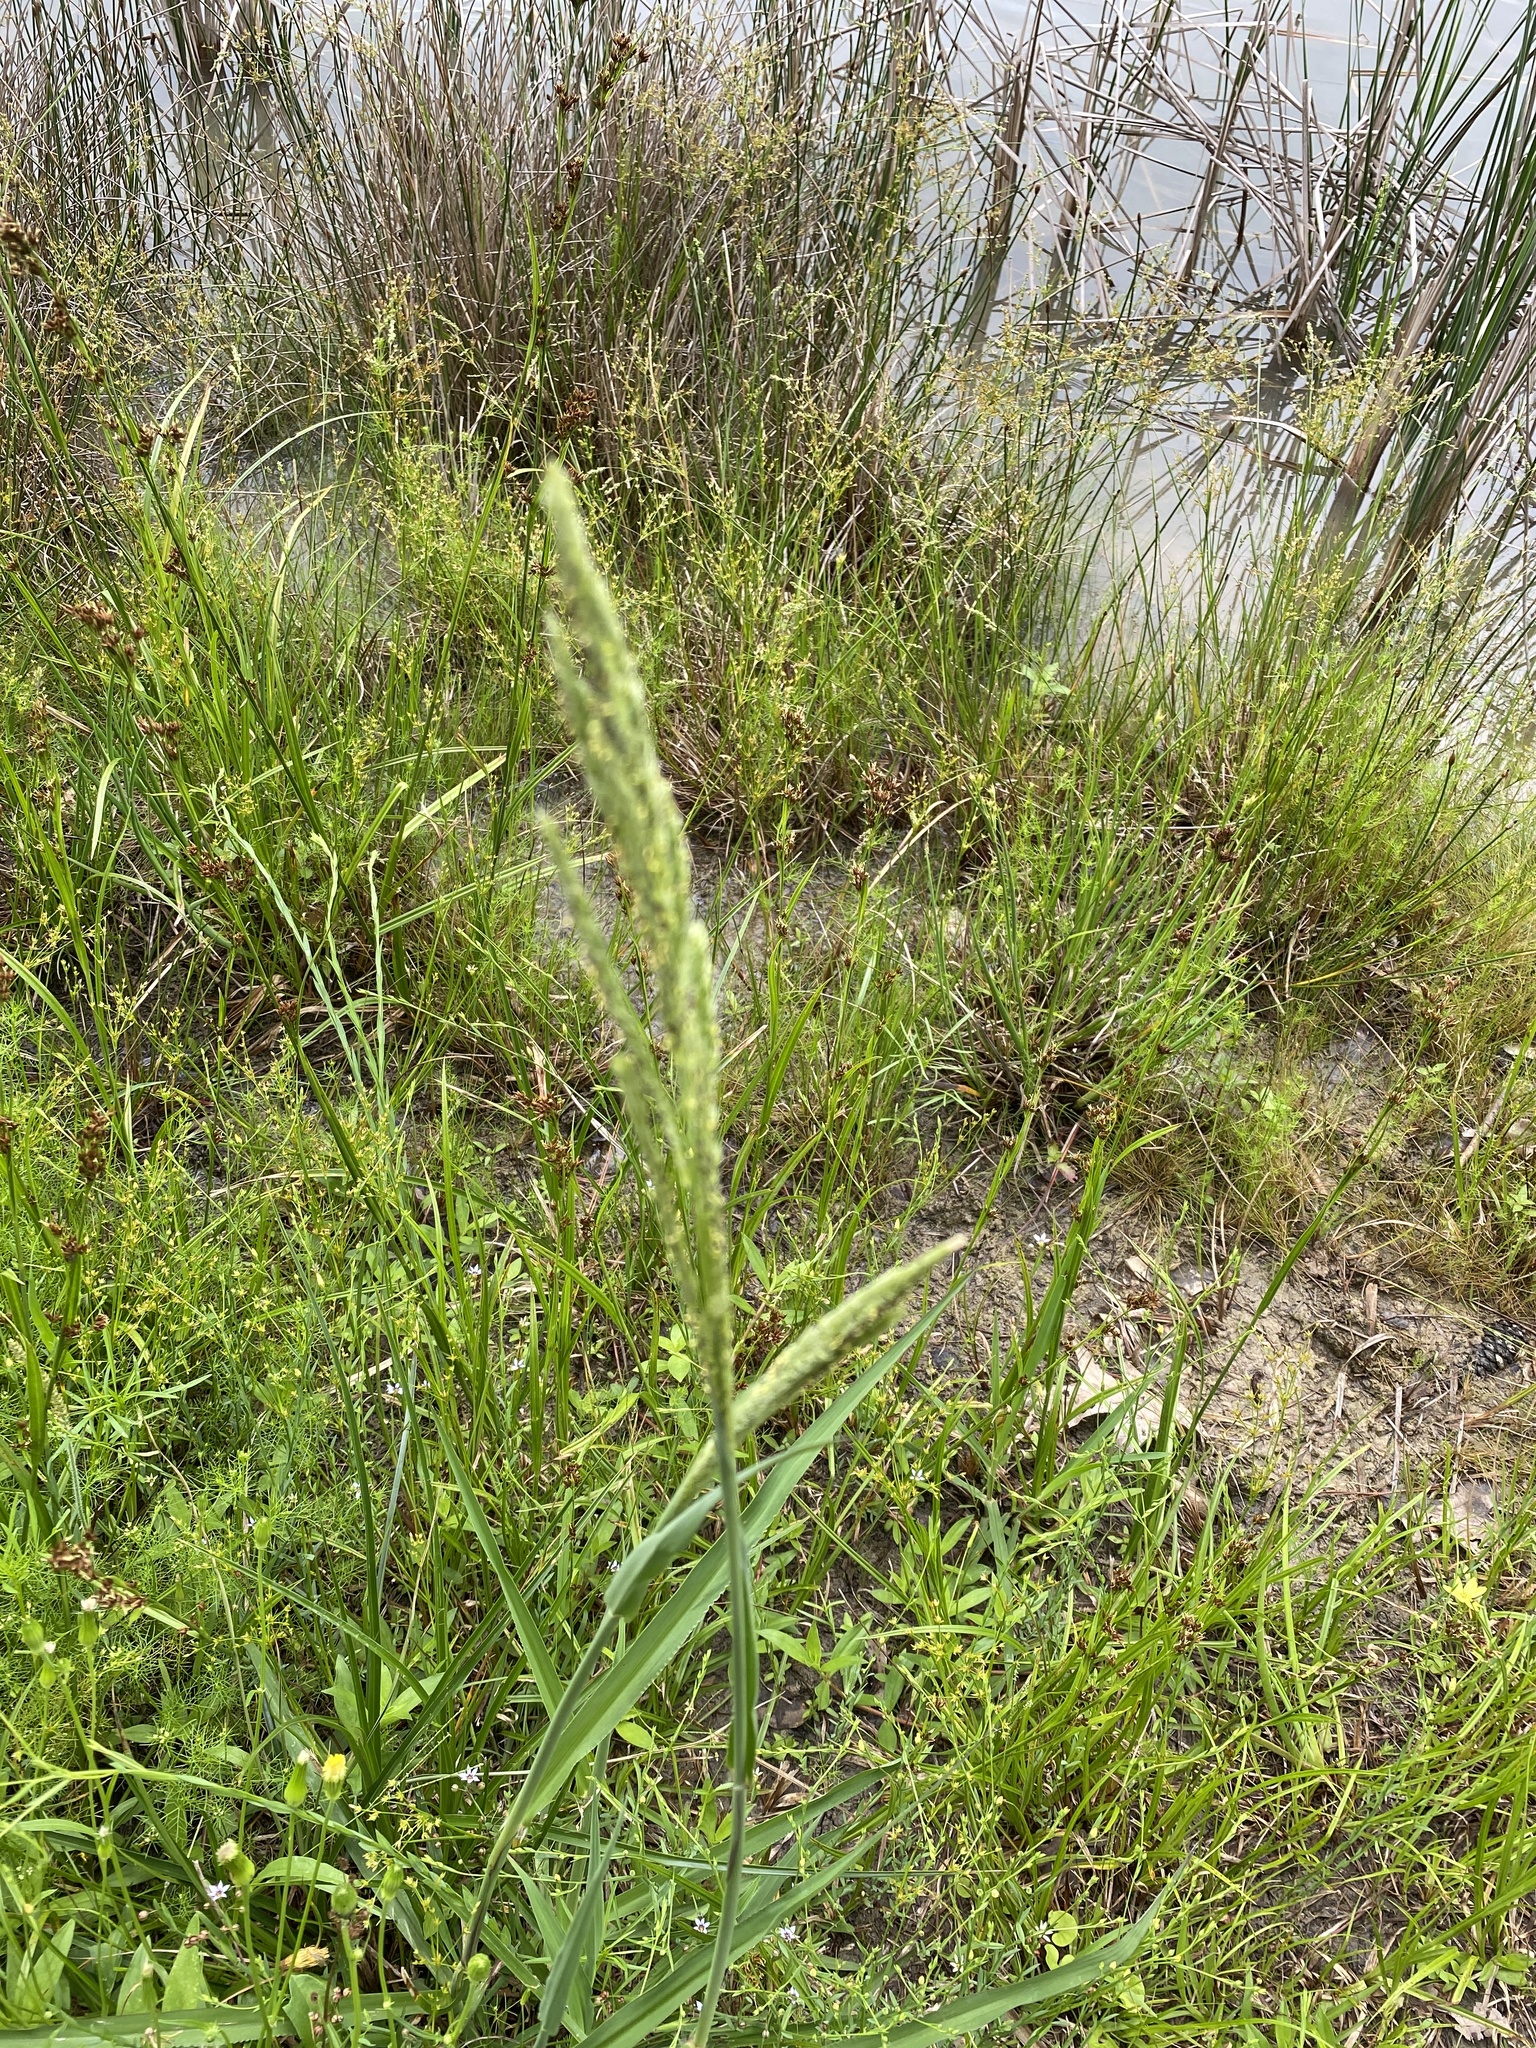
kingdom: Plantae
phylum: Tracheophyta
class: Liliopsida
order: Poales
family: Poaceae
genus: Paspalum
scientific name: Paspalum urvillei
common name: Vasey's grass
